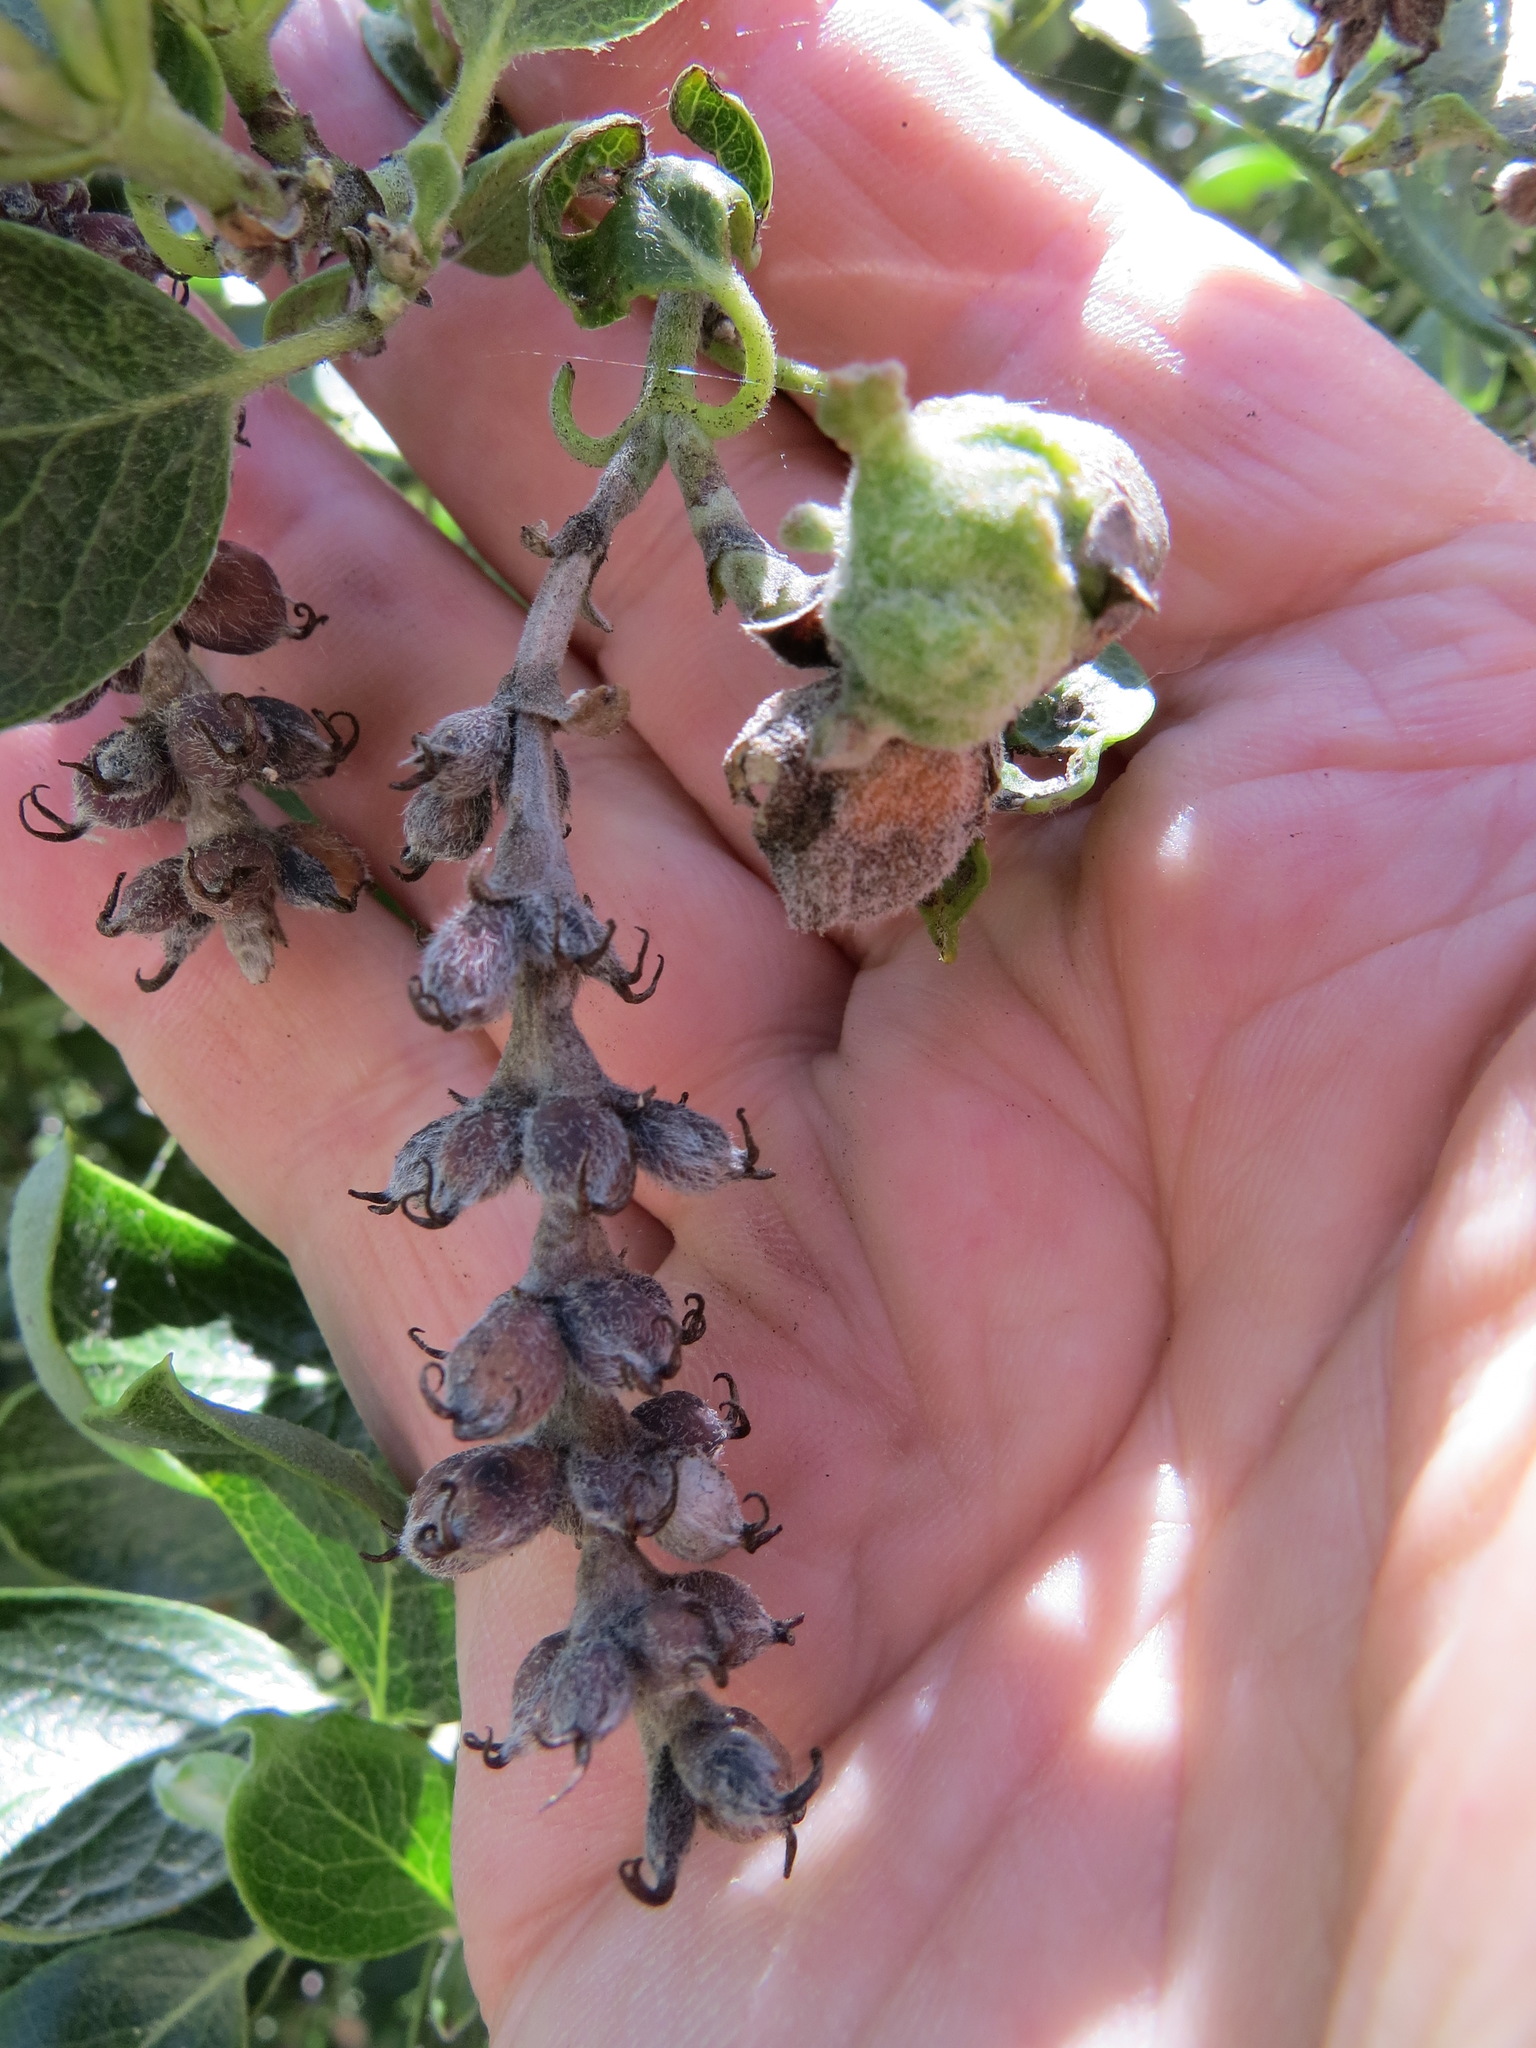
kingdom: Animalia
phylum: Arthropoda
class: Insecta
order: Diptera
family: Cecidomyiidae
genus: Asphondylia
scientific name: Asphondylia garryae
